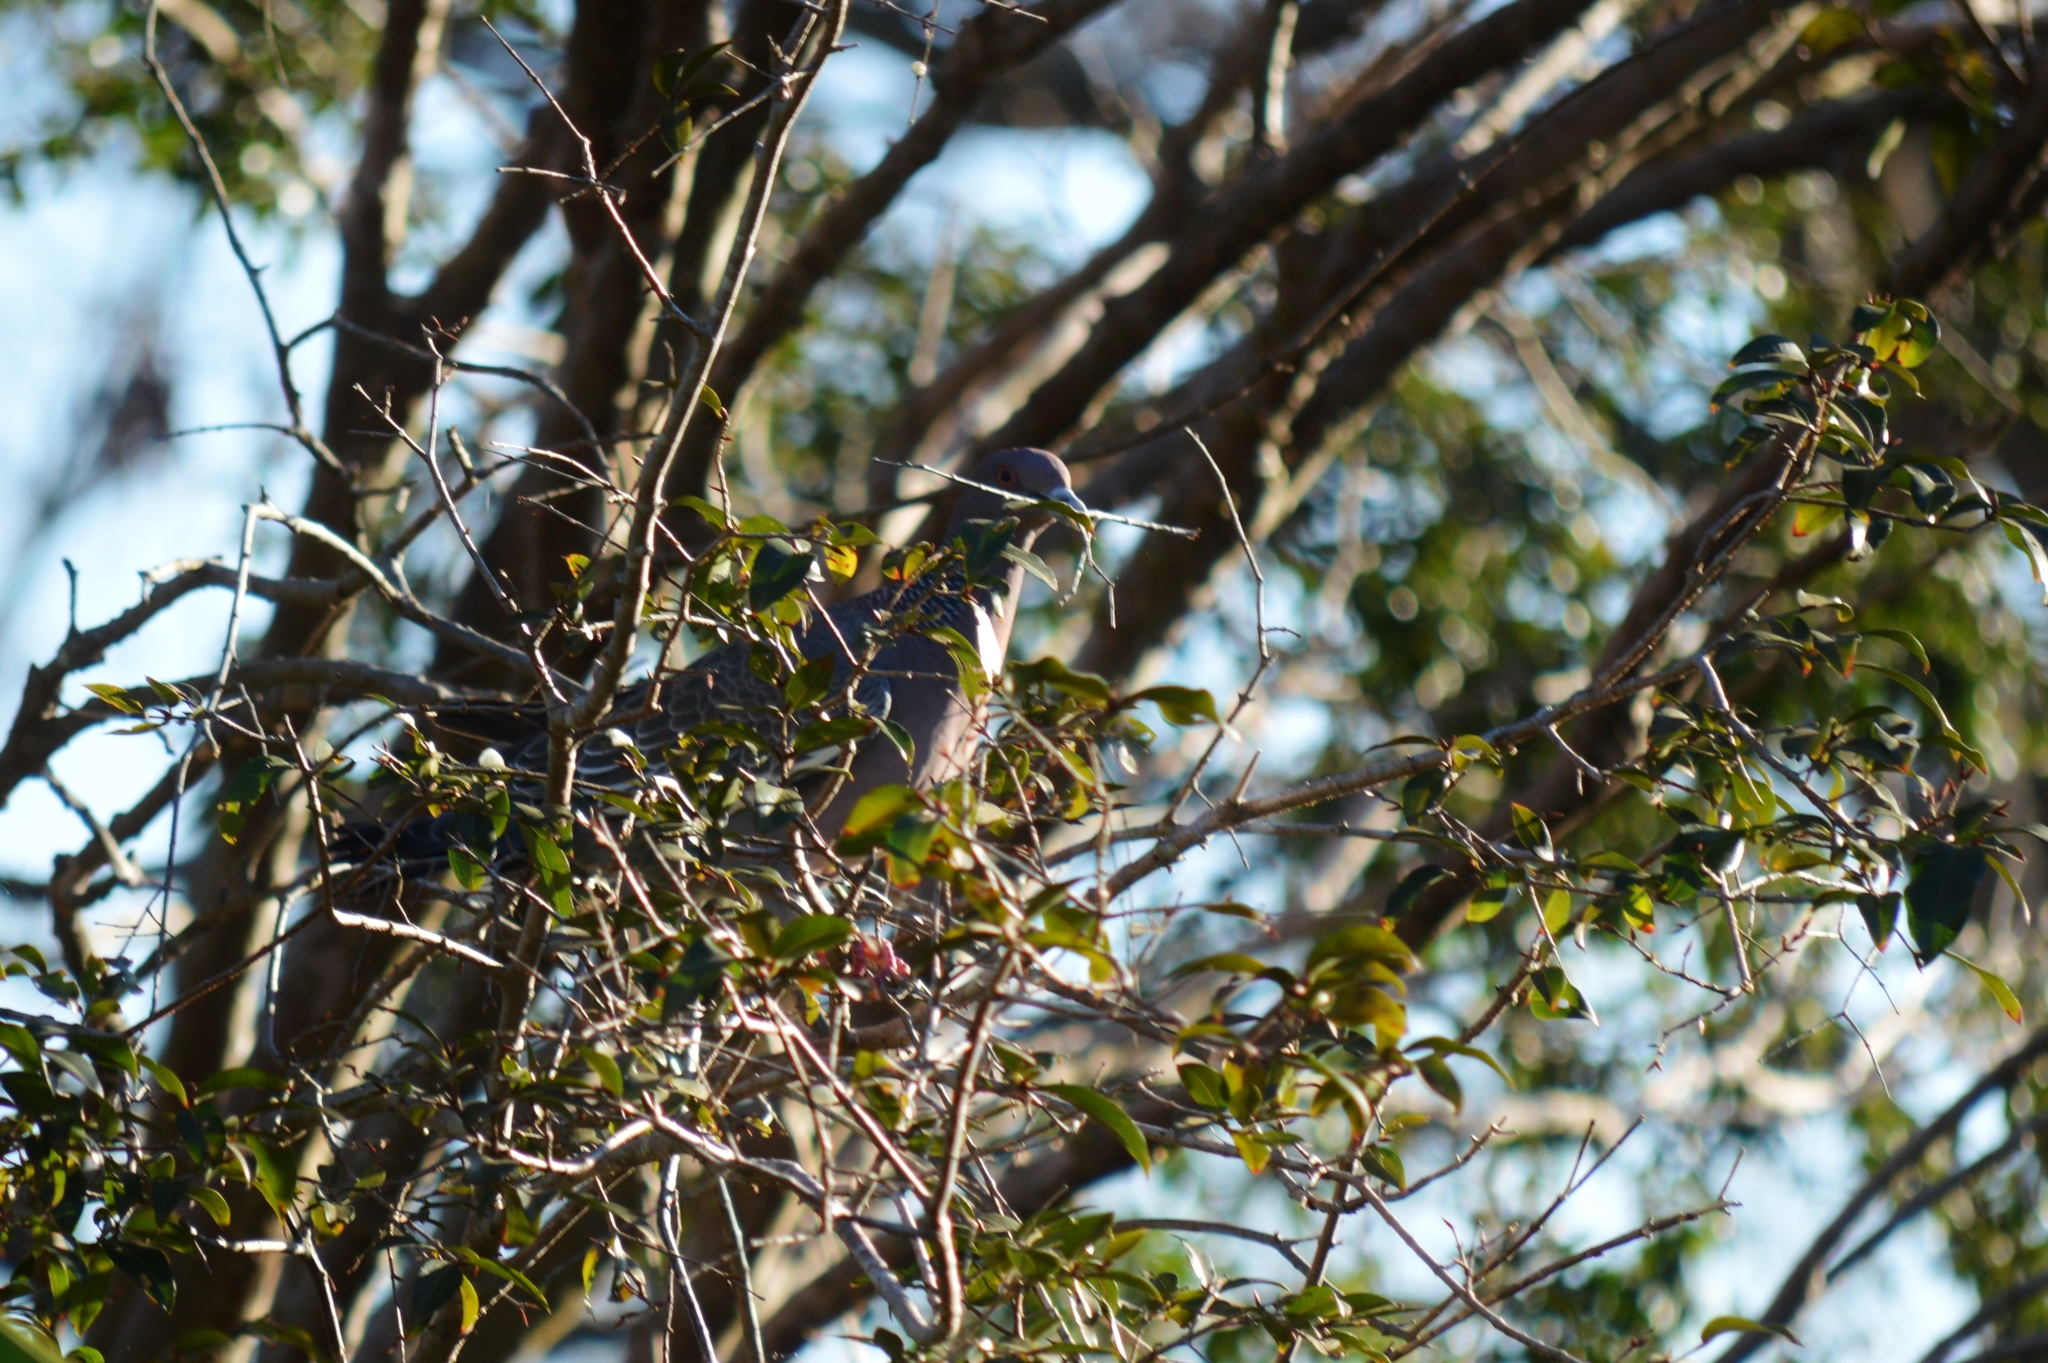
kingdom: Animalia
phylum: Chordata
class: Aves
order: Columbiformes
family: Columbidae
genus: Patagioenas
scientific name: Patagioenas picazuro
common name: Picazuro pigeon
